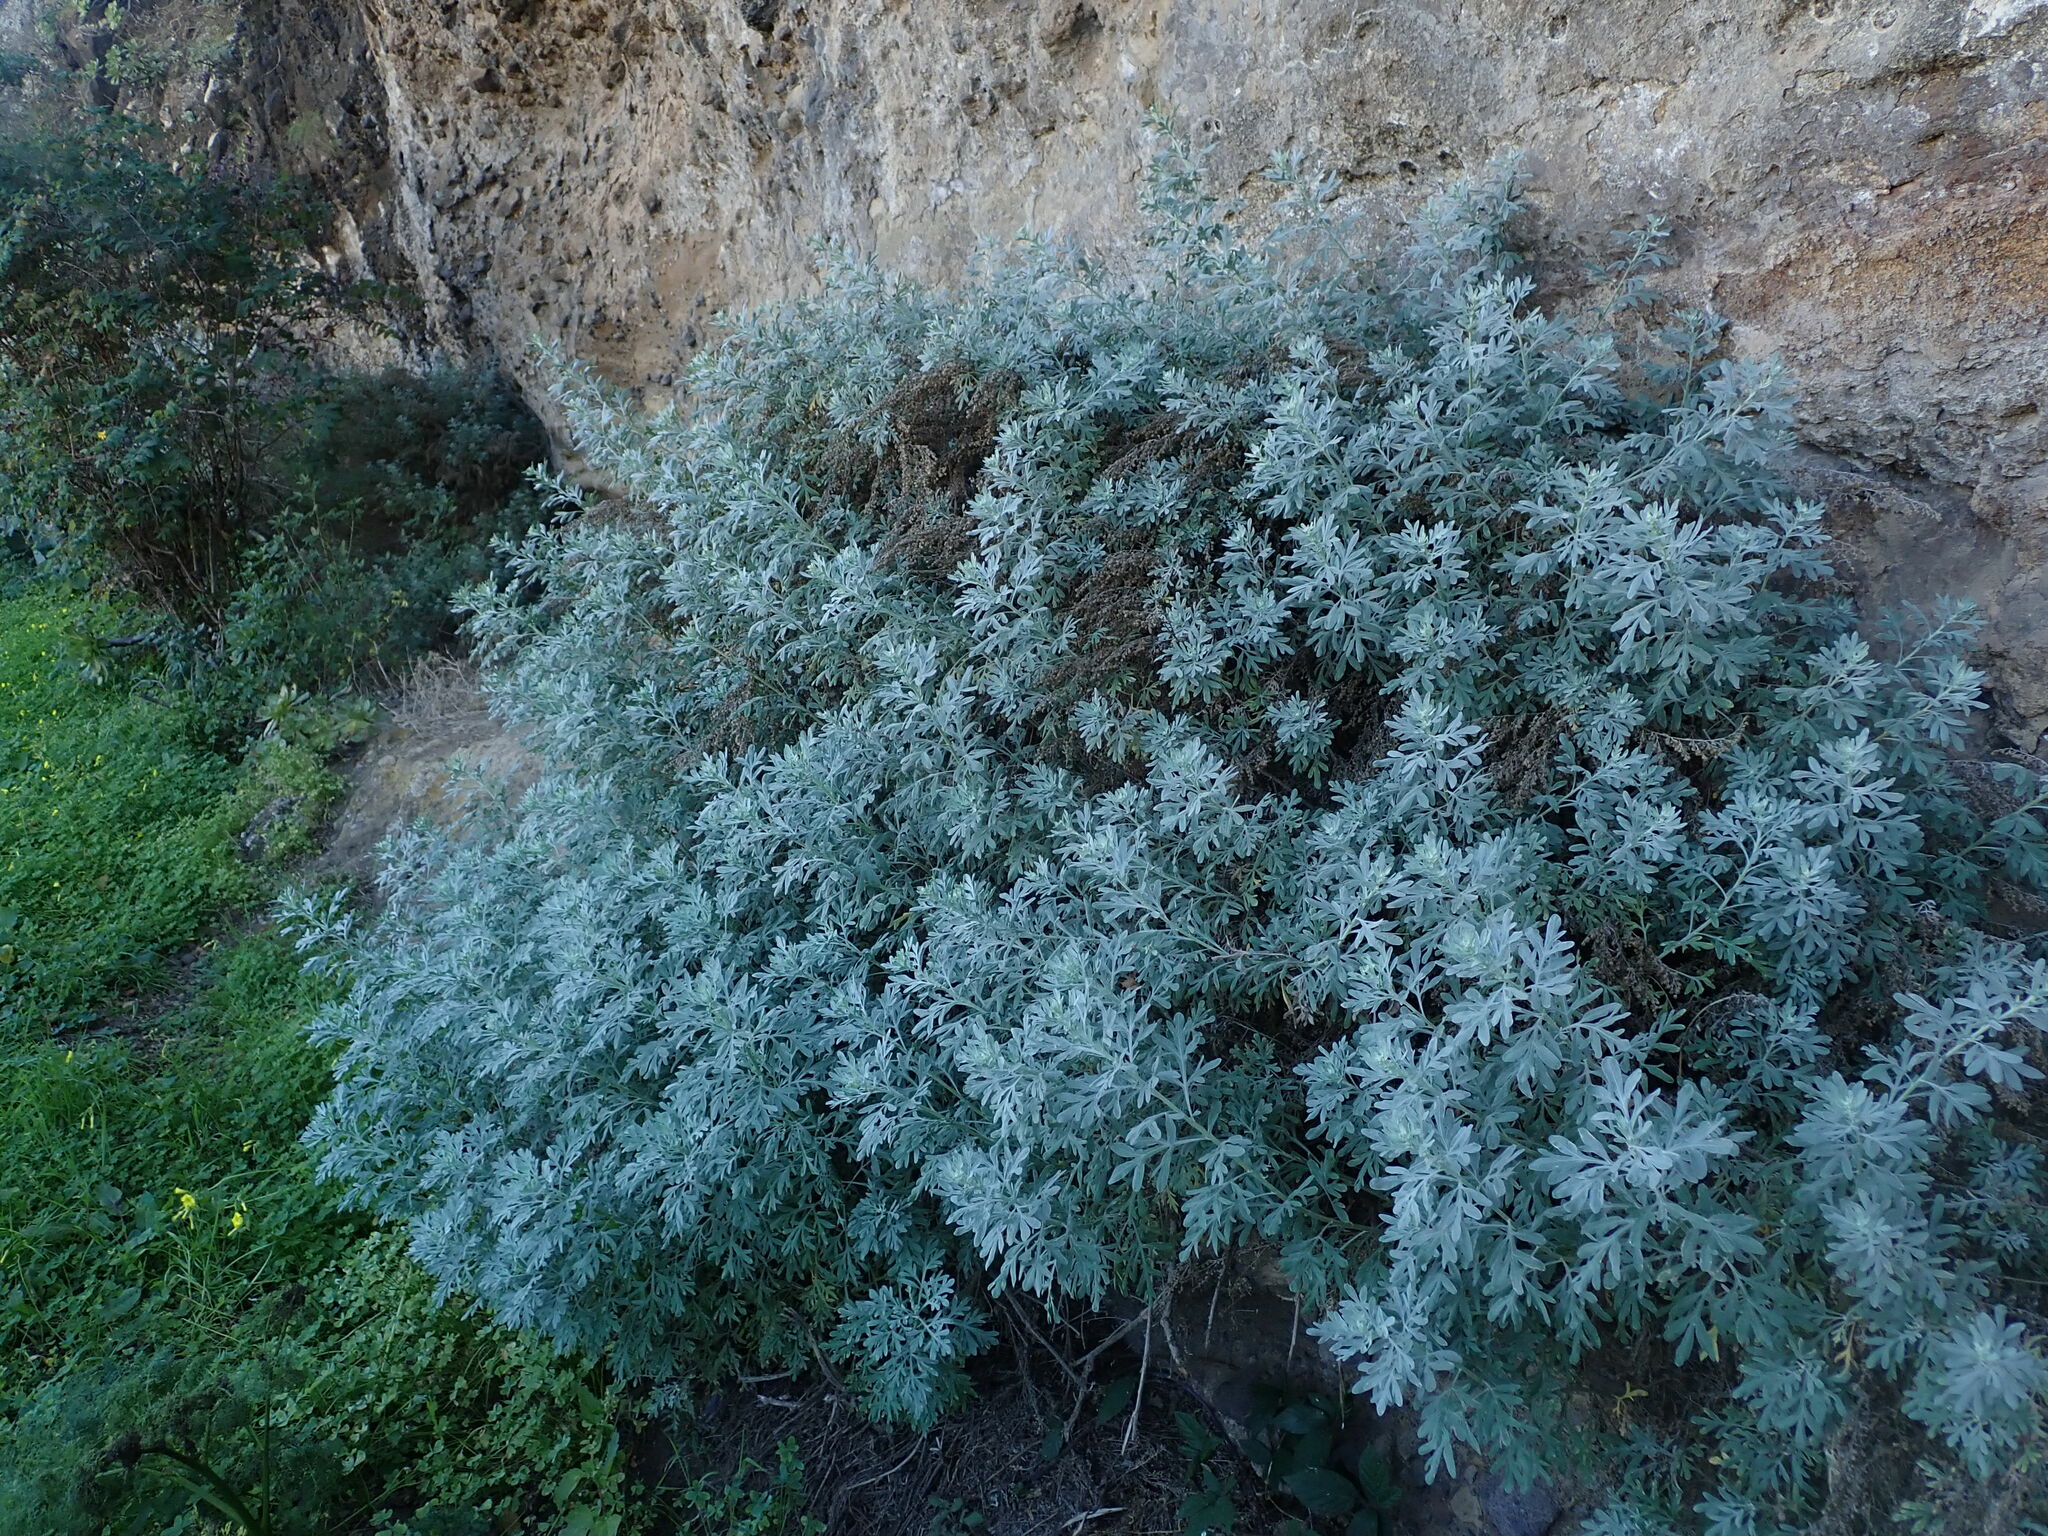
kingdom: Plantae
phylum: Tracheophyta
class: Magnoliopsida
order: Asterales
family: Asteraceae
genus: Artemisia
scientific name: Artemisia thuscula
